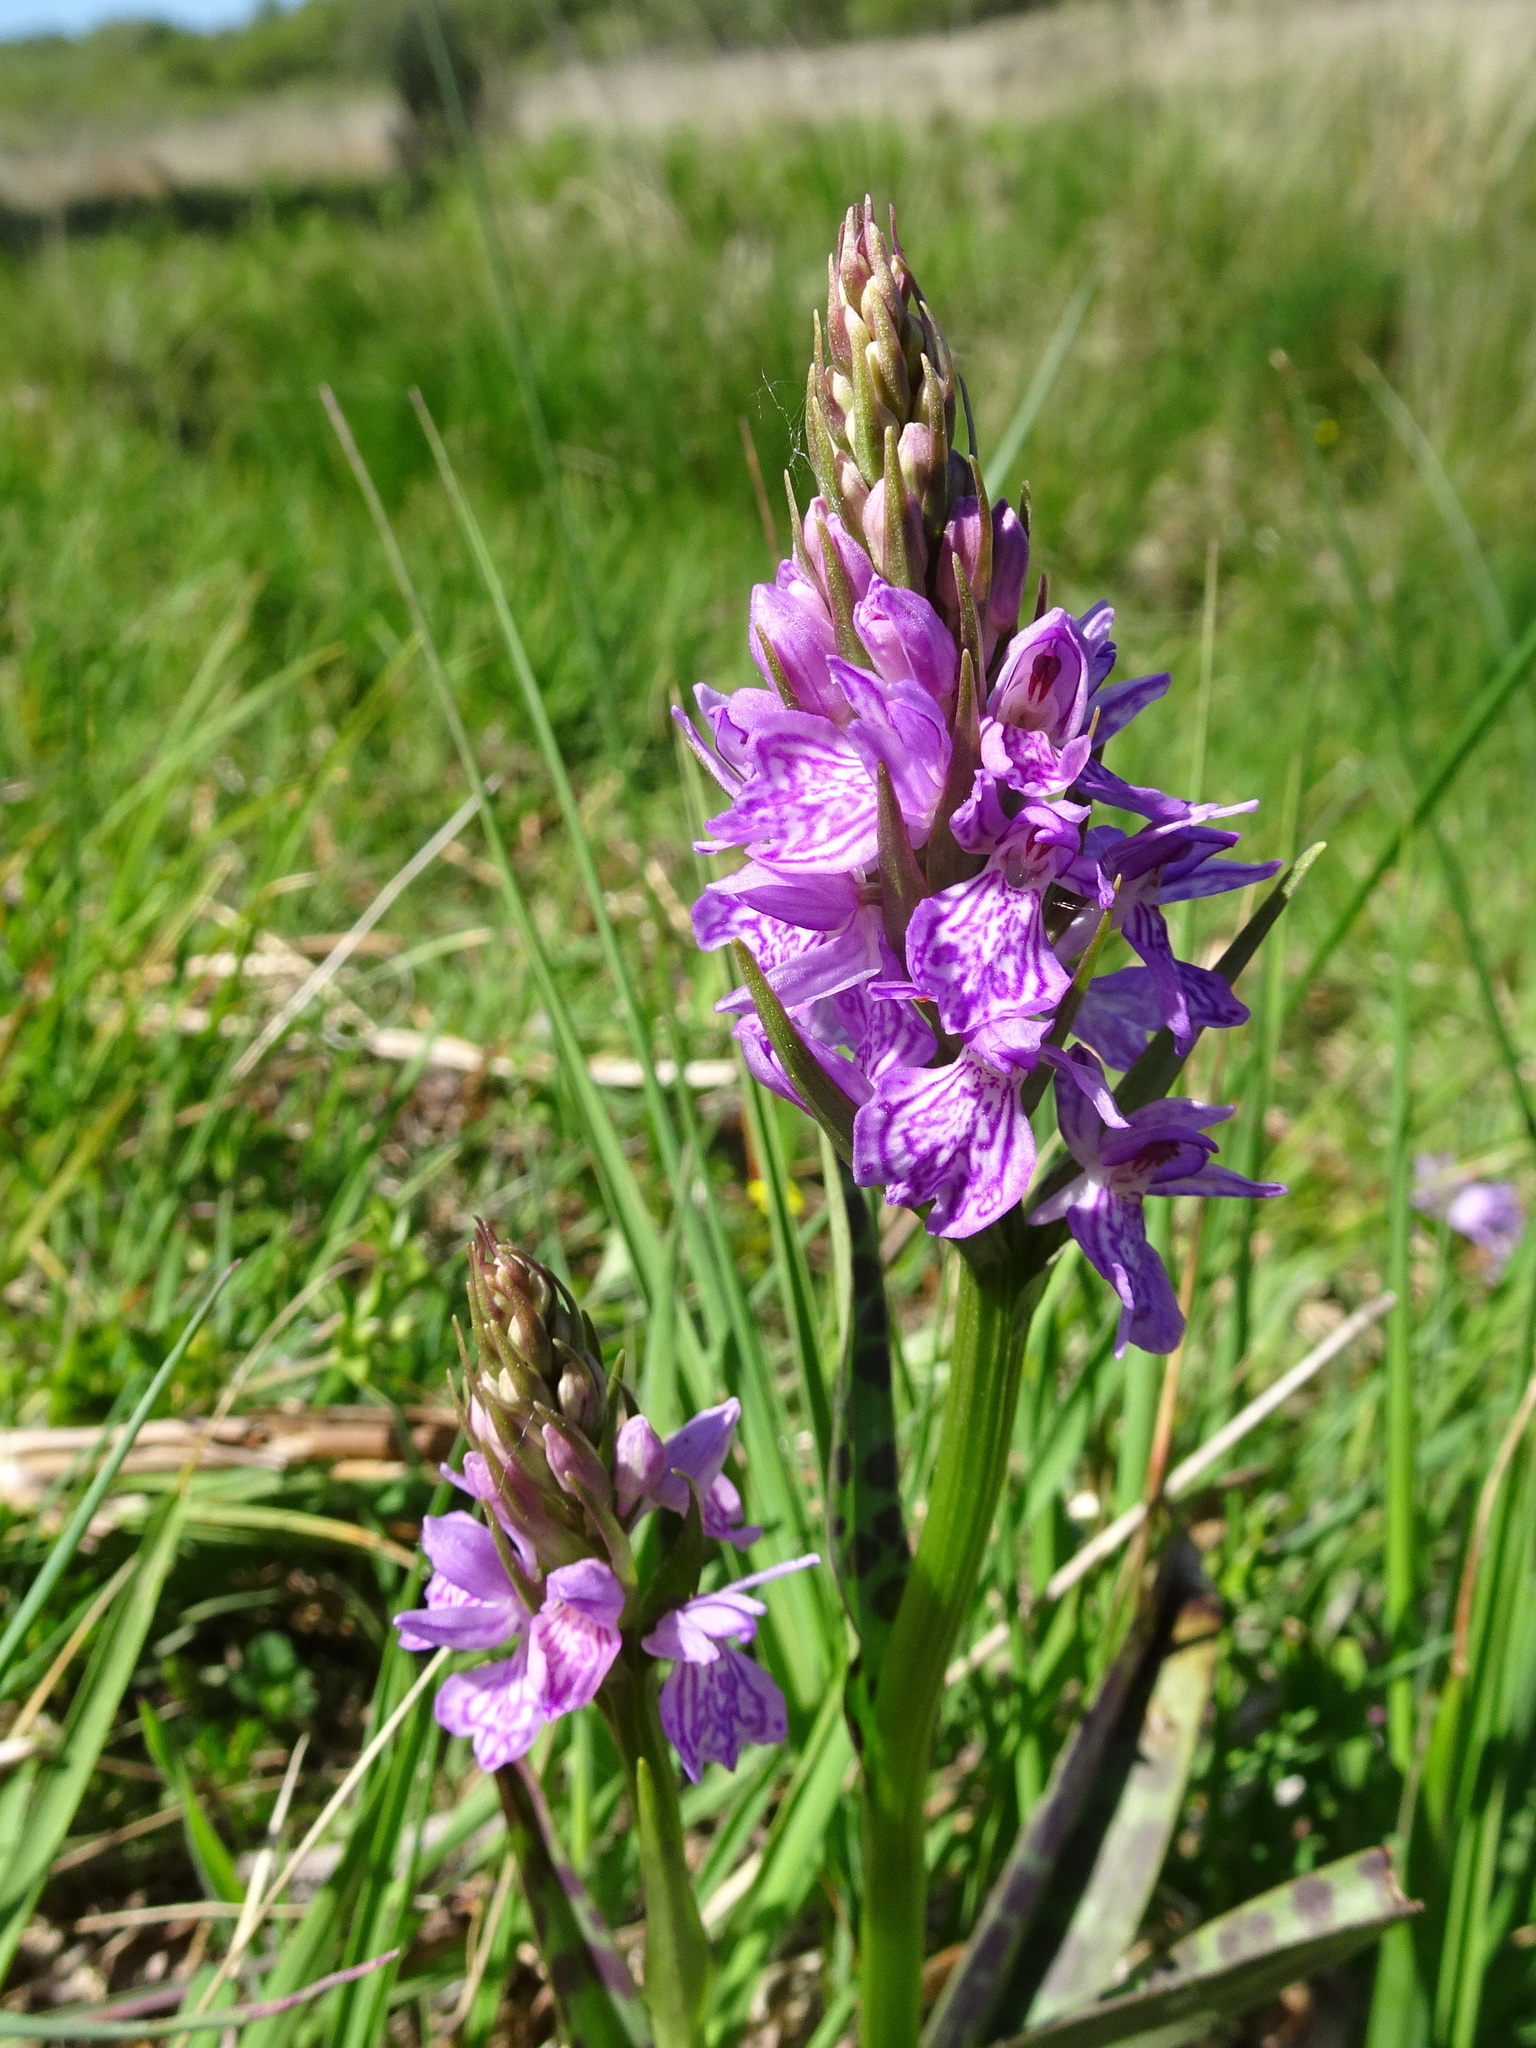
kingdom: Plantae
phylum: Tracheophyta
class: Liliopsida
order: Asparagales
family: Orchidaceae
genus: Dactylorhiza
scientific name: Dactylorhiza majalis
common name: Marsh orchid
